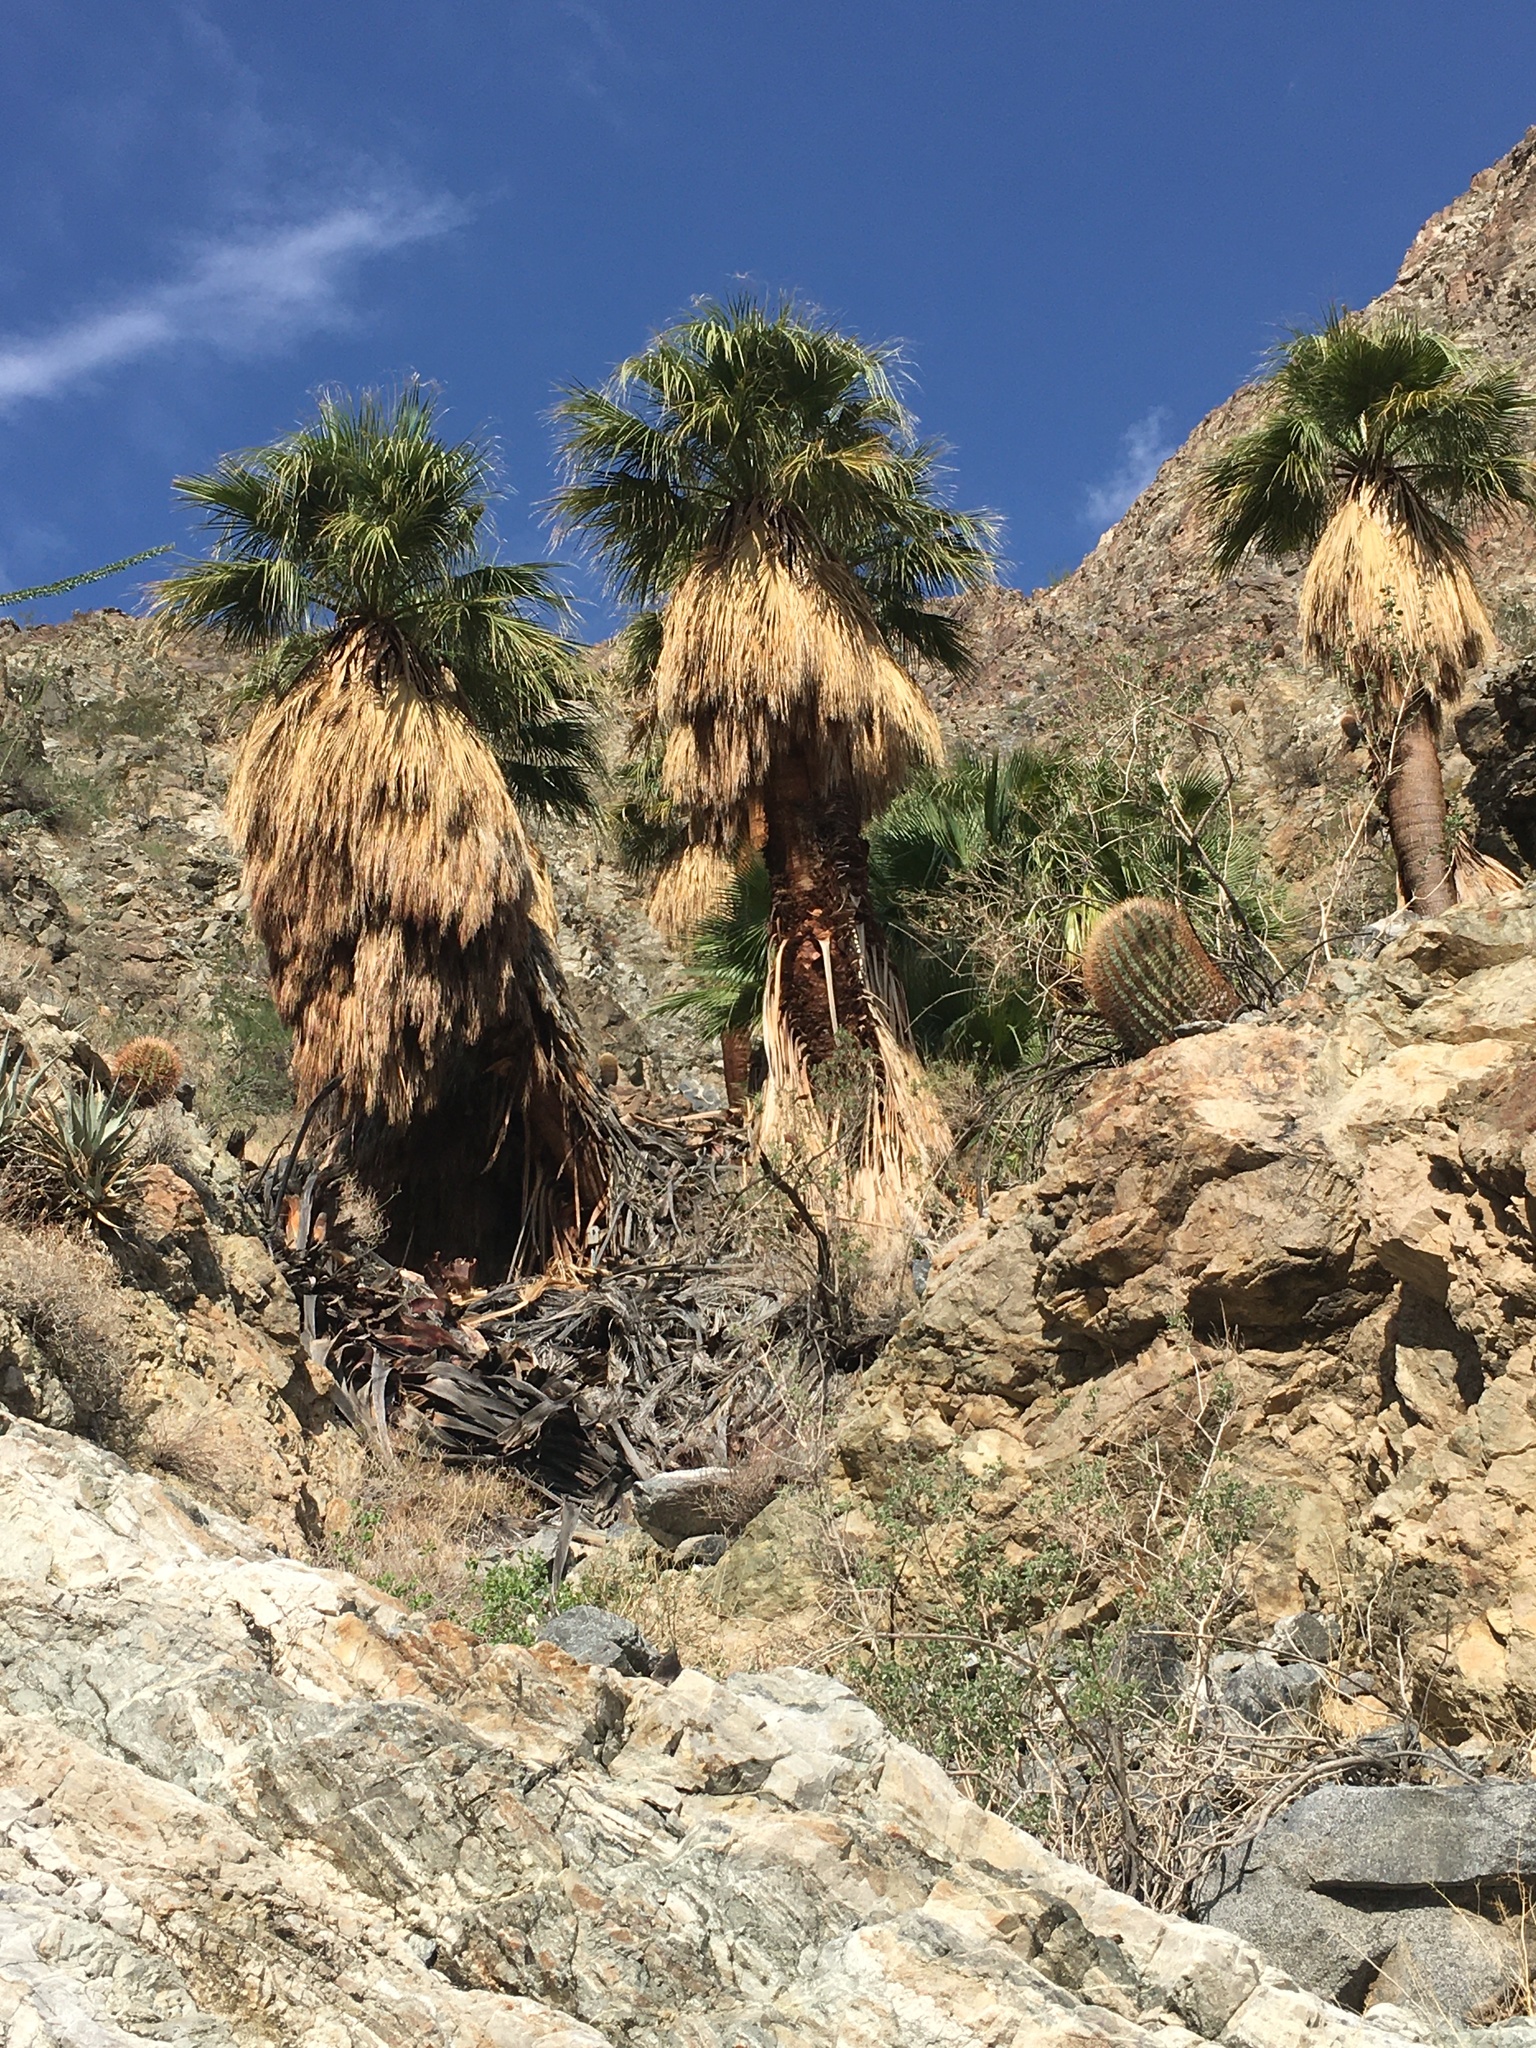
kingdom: Plantae
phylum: Tracheophyta
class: Liliopsida
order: Arecales
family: Arecaceae
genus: Washingtonia
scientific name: Washingtonia filifera
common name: California fan palm
